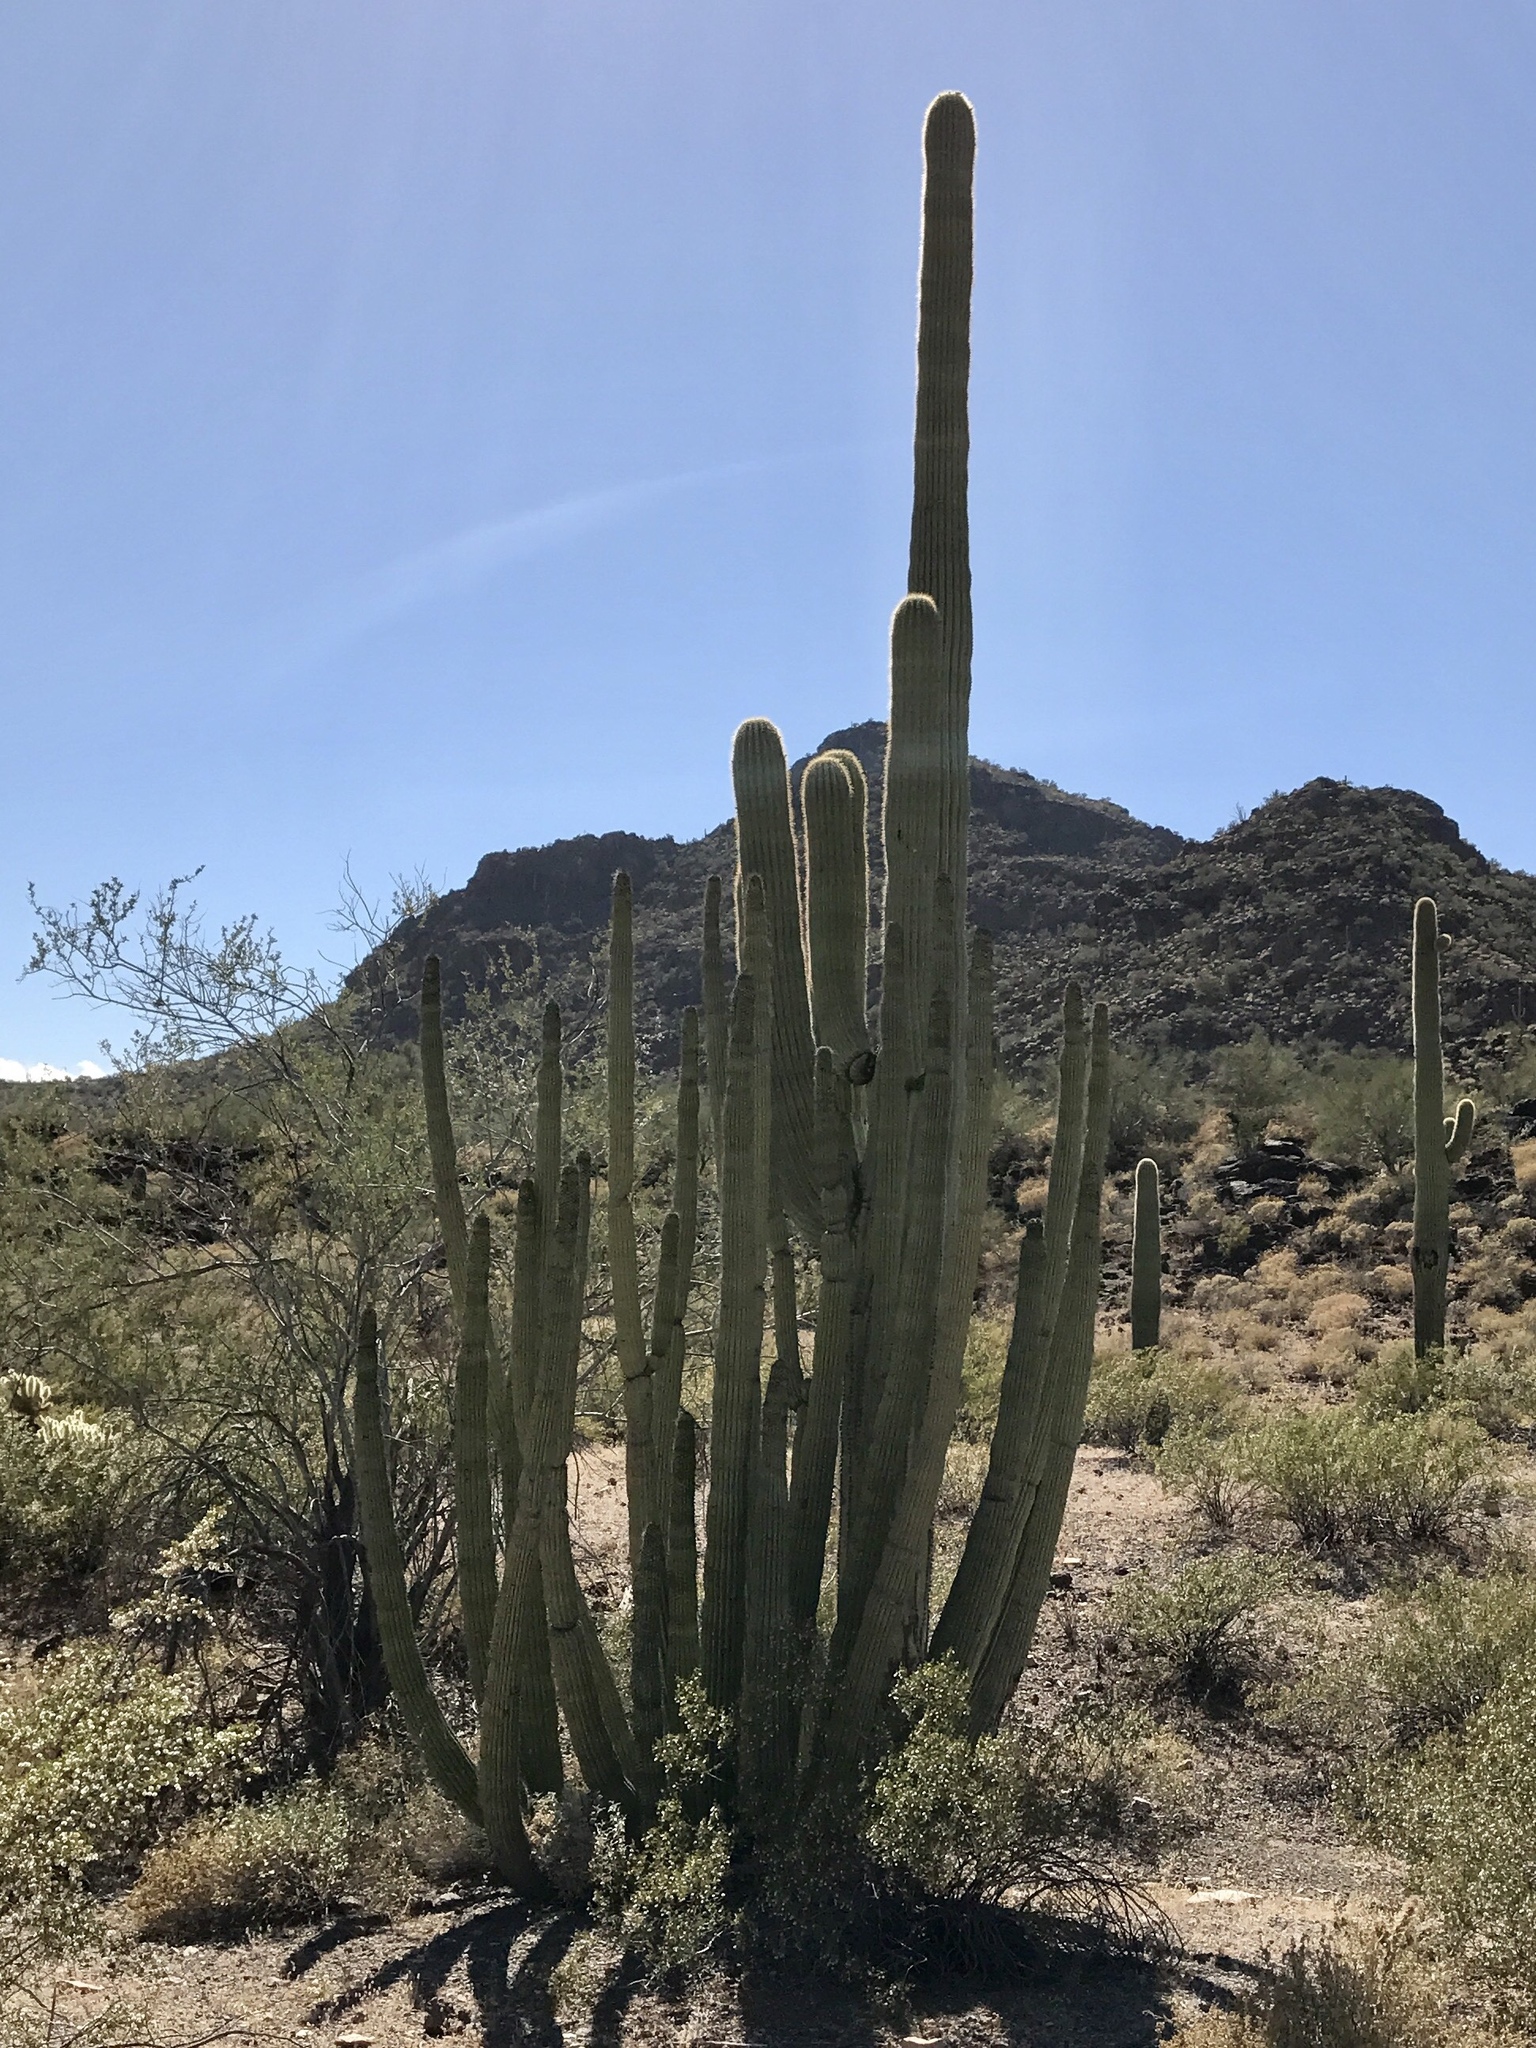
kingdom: Plantae
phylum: Tracheophyta
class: Magnoliopsida
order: Caryophyllales
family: Cactaceae
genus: Stenocereus
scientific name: Stenocereus thurberi
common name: Organ pipe cactus
